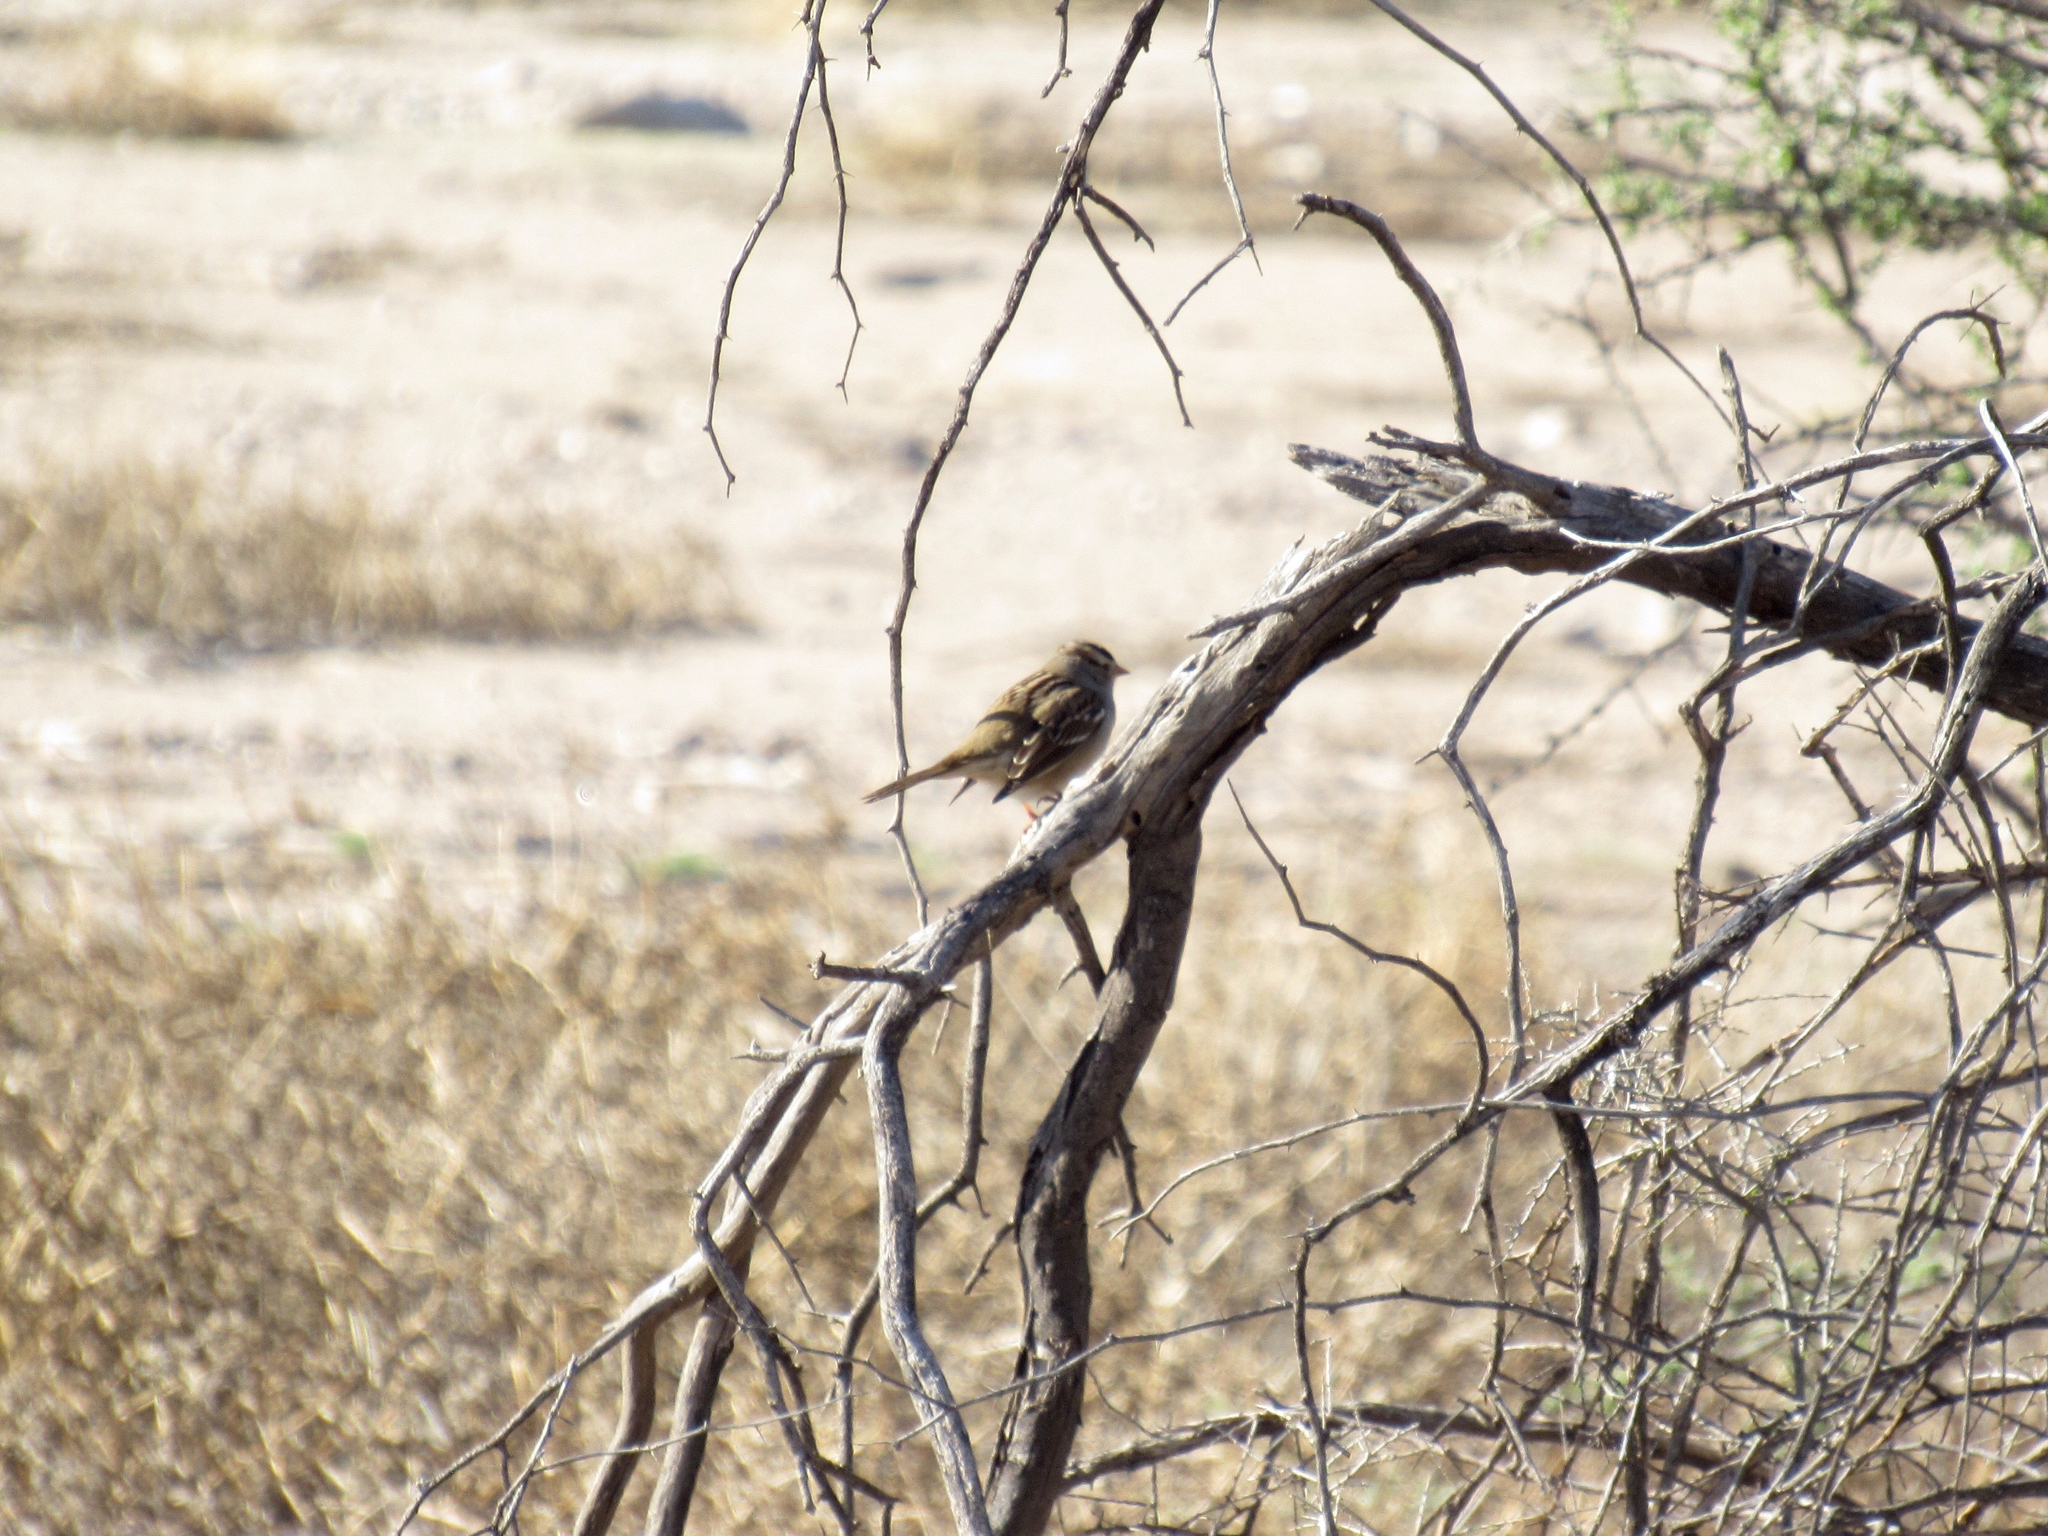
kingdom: Animalia
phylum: Chordata
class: Aves
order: Passeriformes
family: Passerellidae
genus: Zonotrichia
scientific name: Zonotrichia leucophrys
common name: White-crowned sparrow
